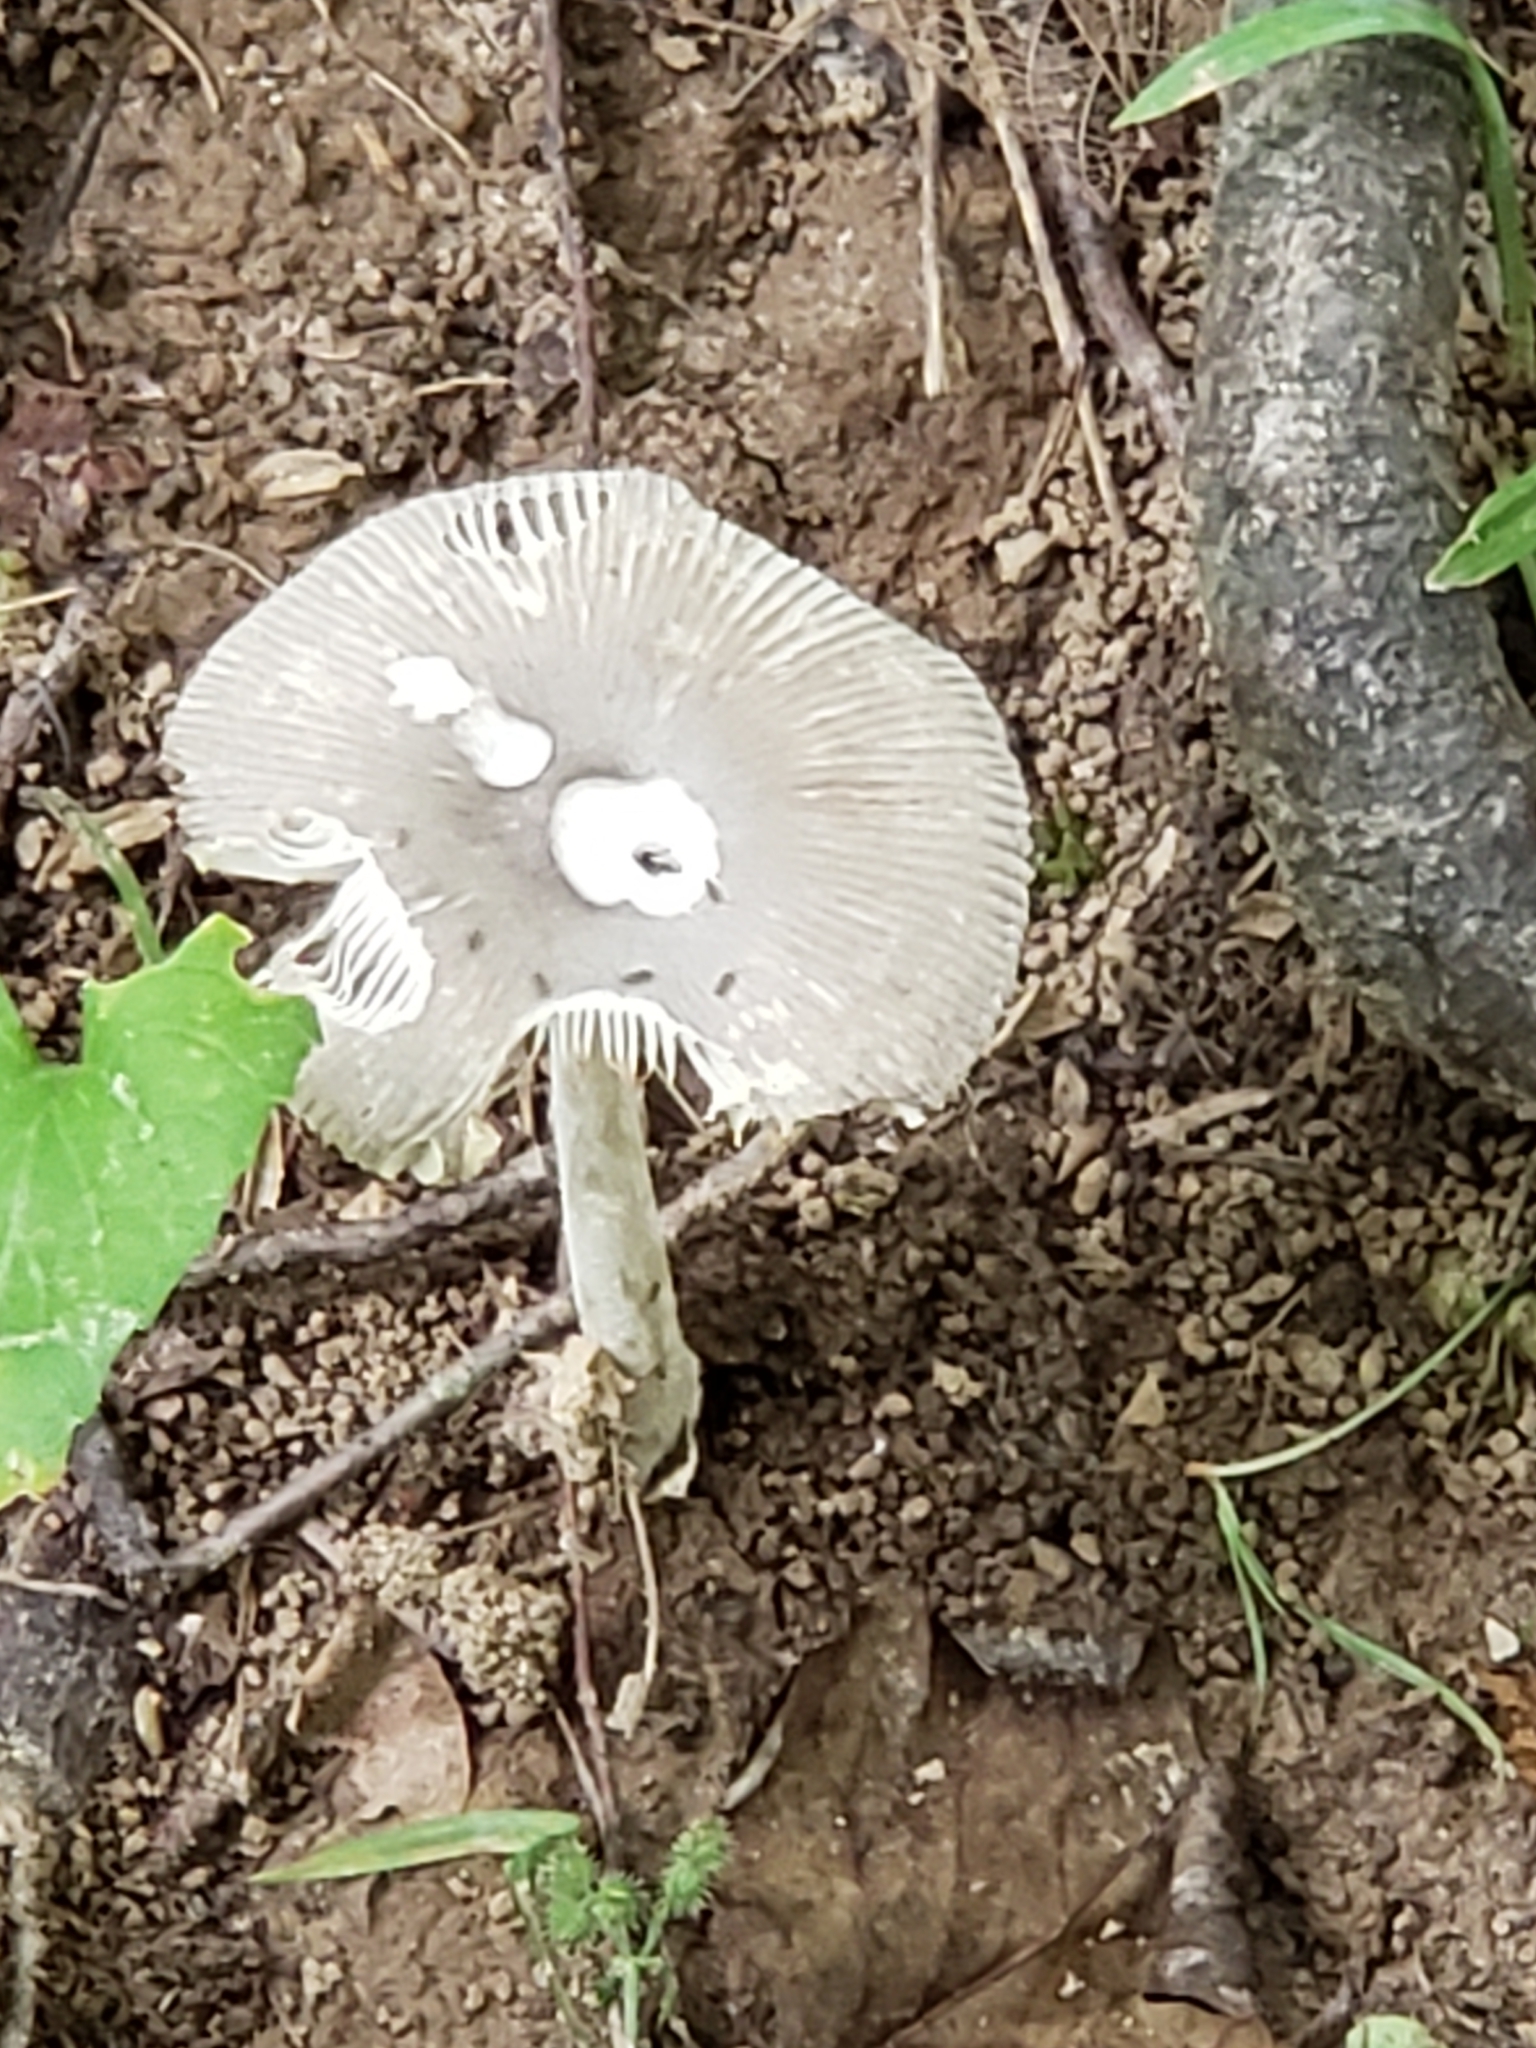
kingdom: Fungi
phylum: Basidiomycota
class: Agaricomycetes
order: Agaricales
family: Amanitaceae
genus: Amanita
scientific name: Amanita vaginata
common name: Grisette
